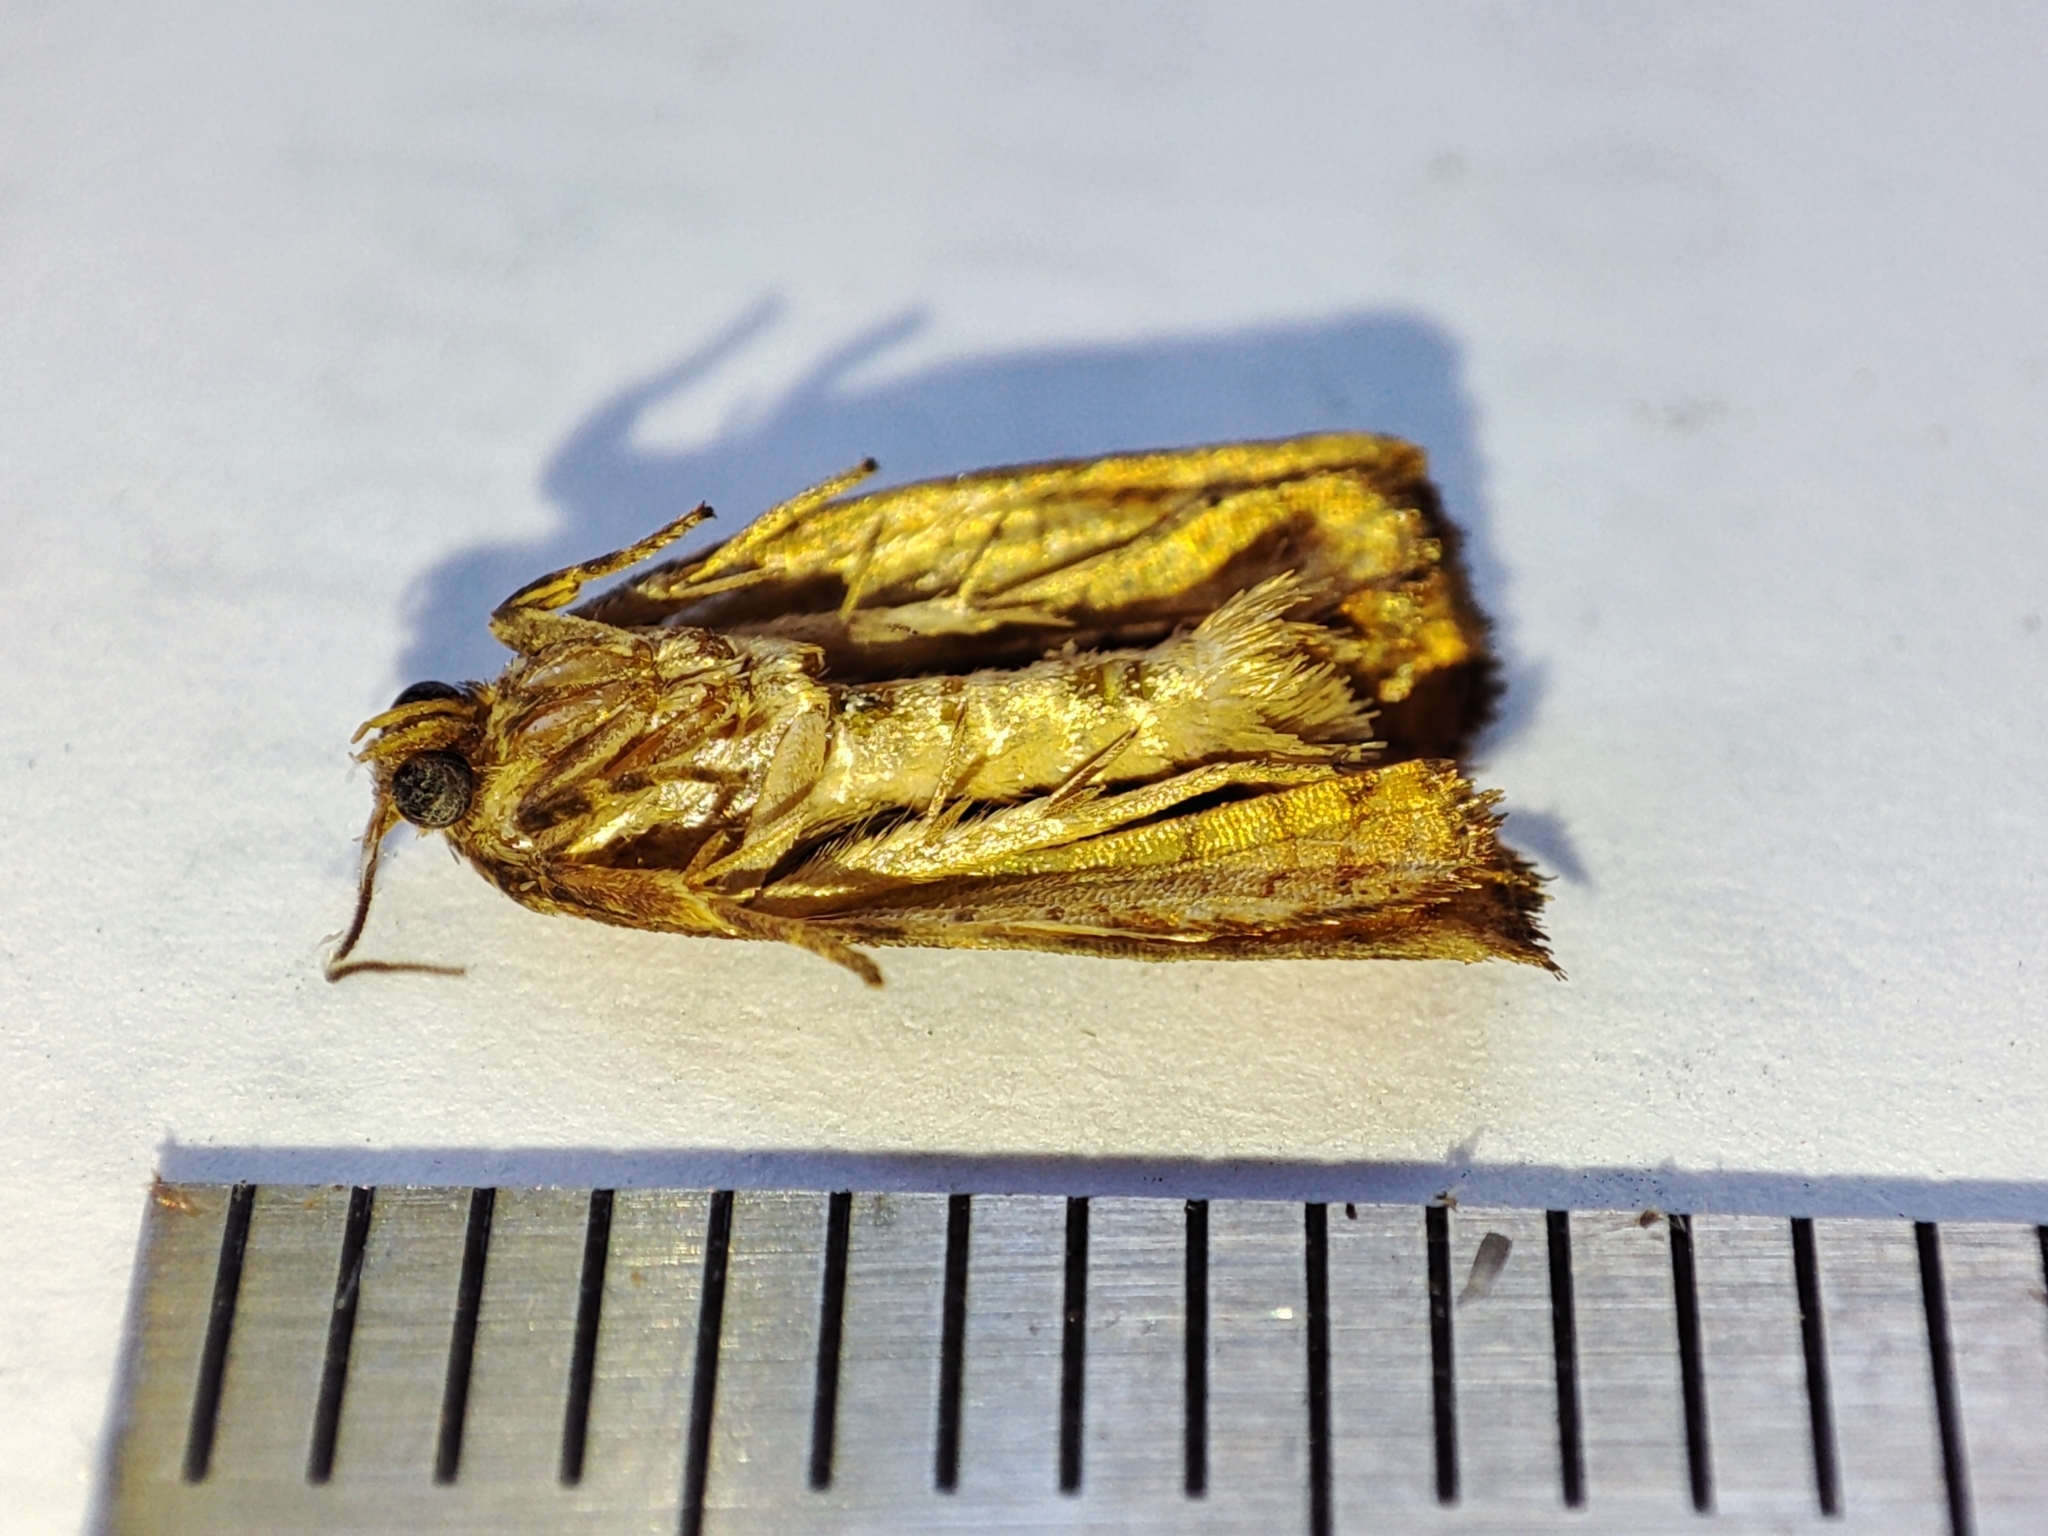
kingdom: Animalia
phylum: Arthropoda
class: Insecta
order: Lepidoptera
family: Tortricidae
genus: Archips
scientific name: Archips podana
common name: Large fruit-tree tortrix
